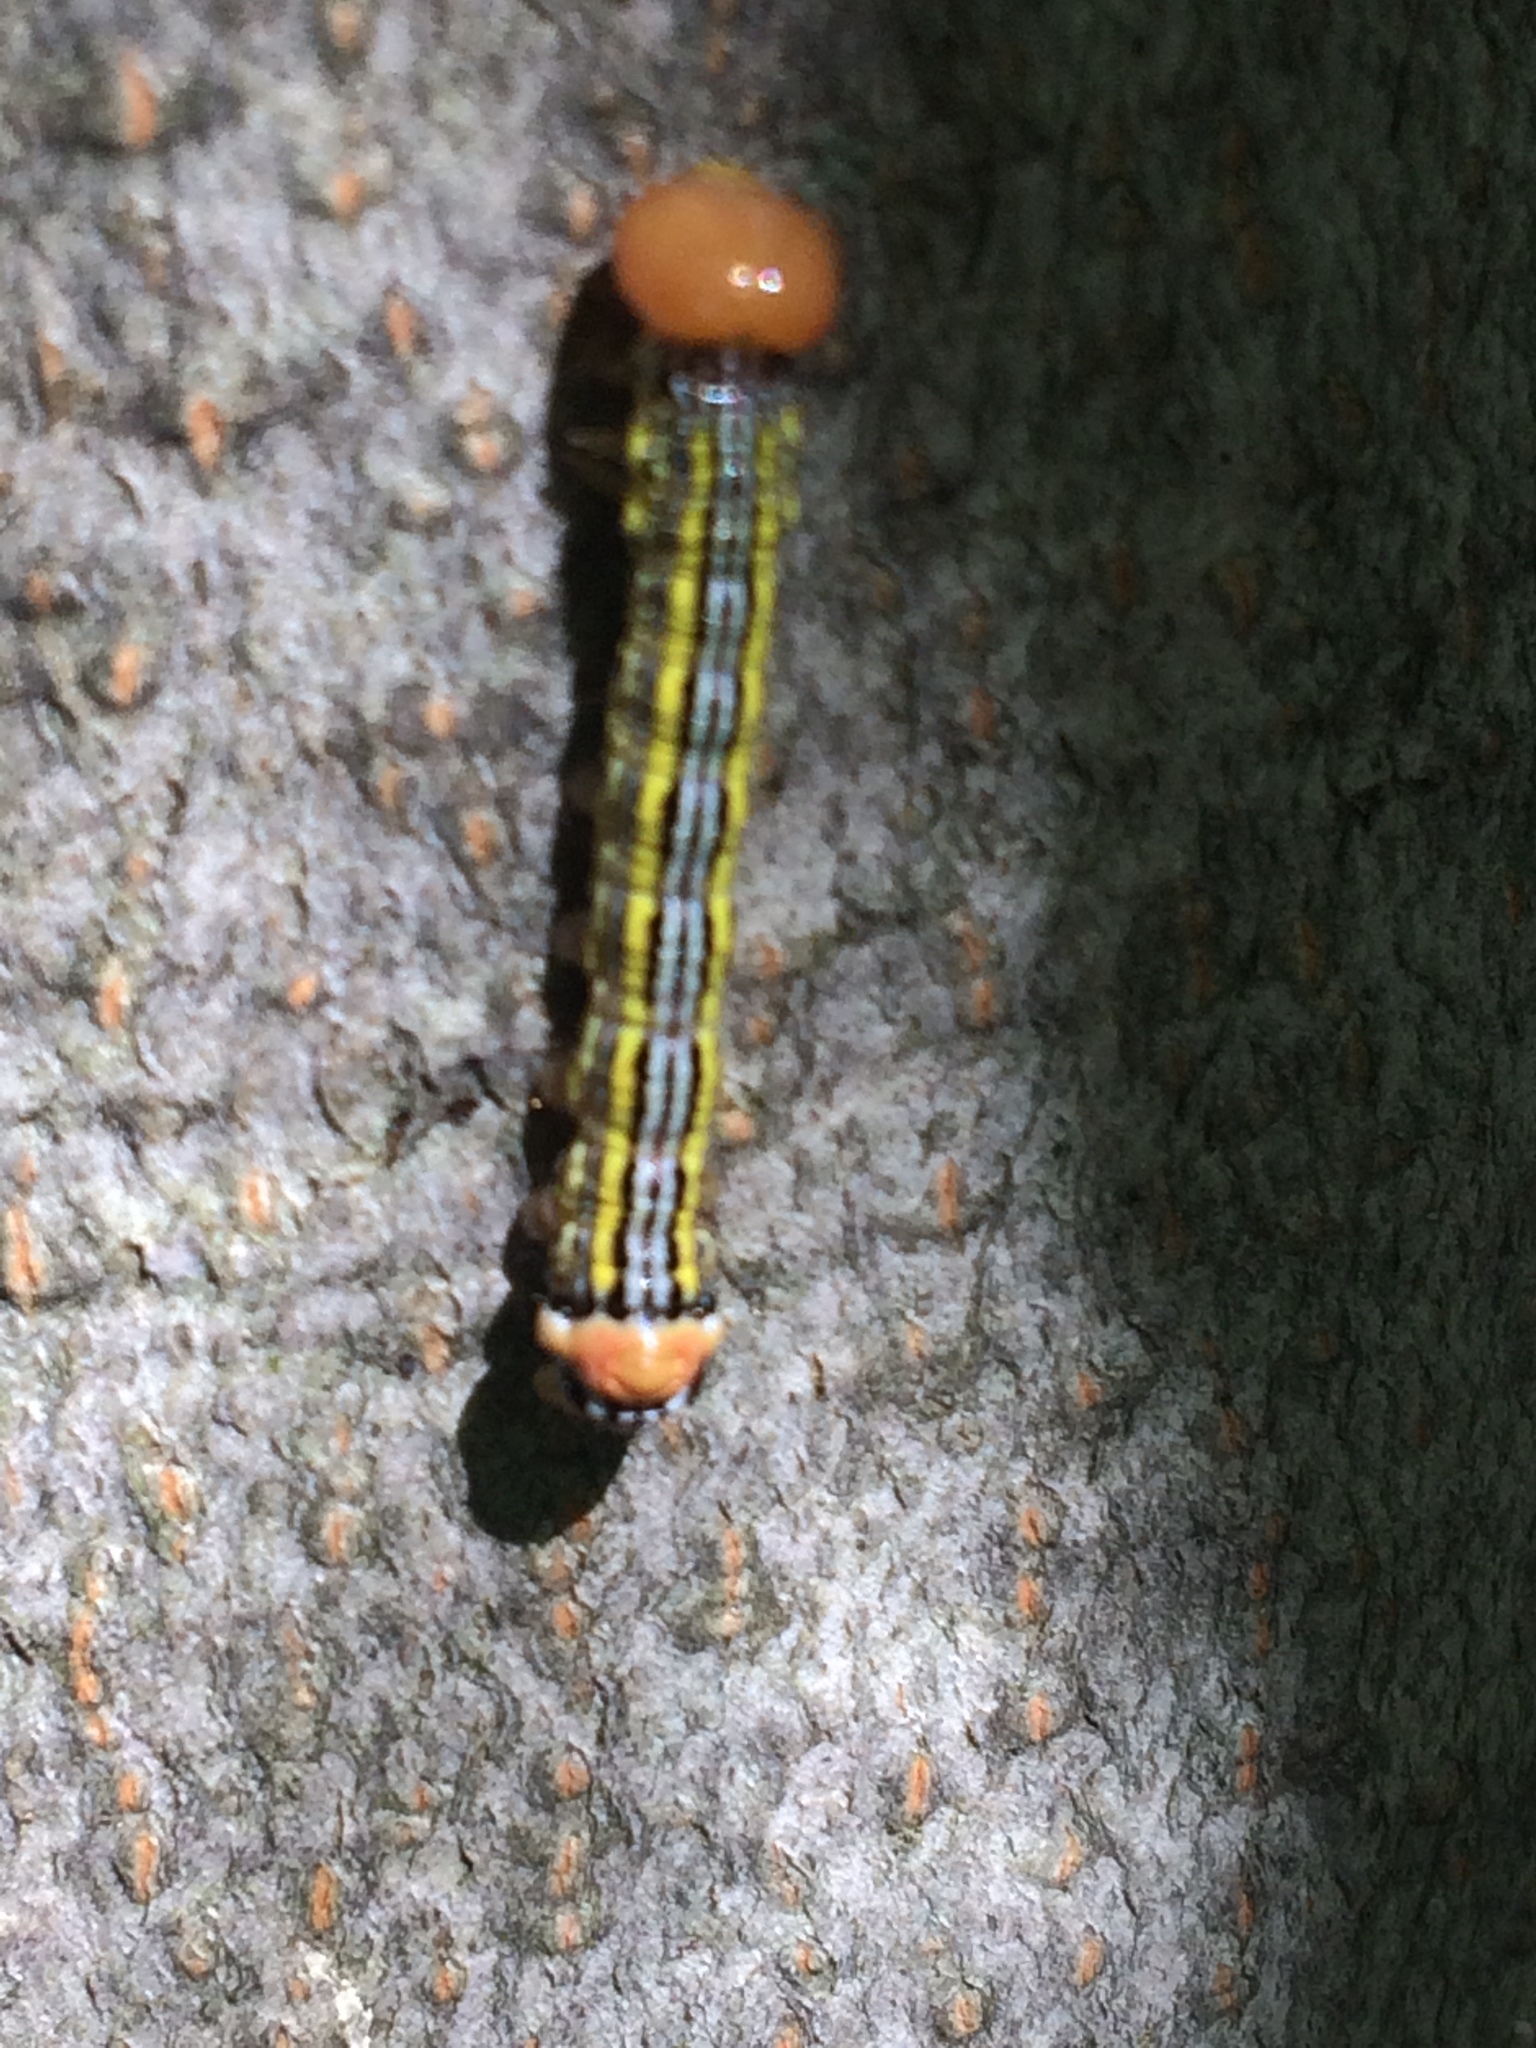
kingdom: Animalia
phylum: Arthropoda
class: Insecta
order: Lepidoptera
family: Notodontidae
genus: Symmerista
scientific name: Symmerista
